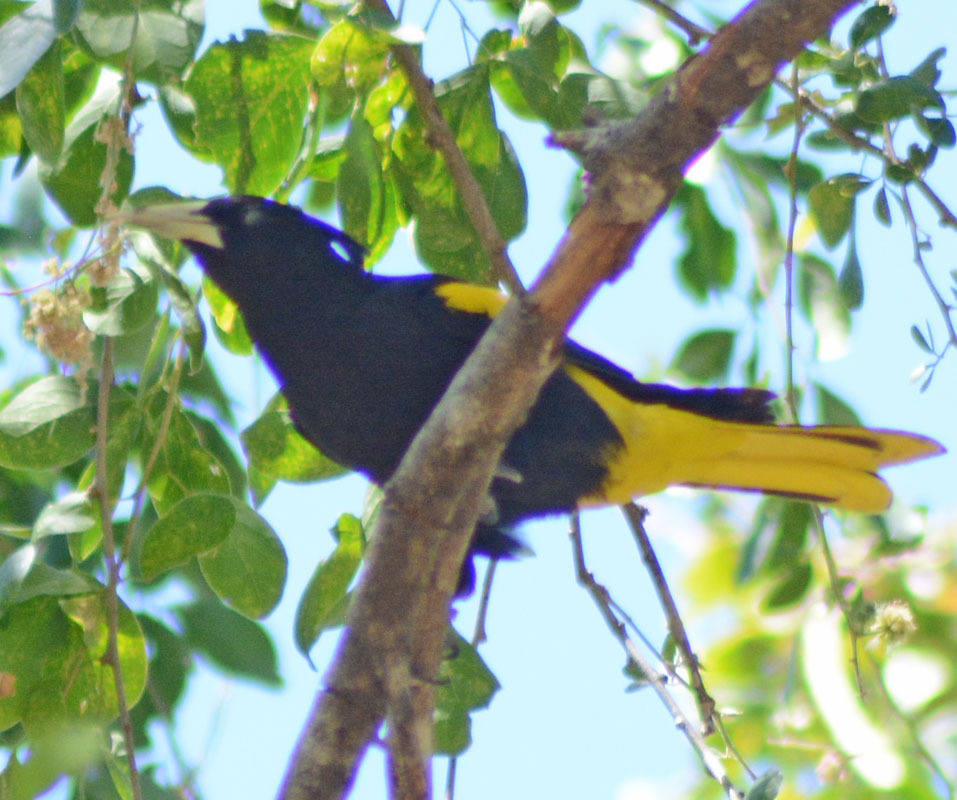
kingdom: Animalia
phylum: Chordata
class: Aves
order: Passeriformes
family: Icteridae
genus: Cacicus
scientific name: Cacicus melanicterus
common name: Yellow-winged cacique
